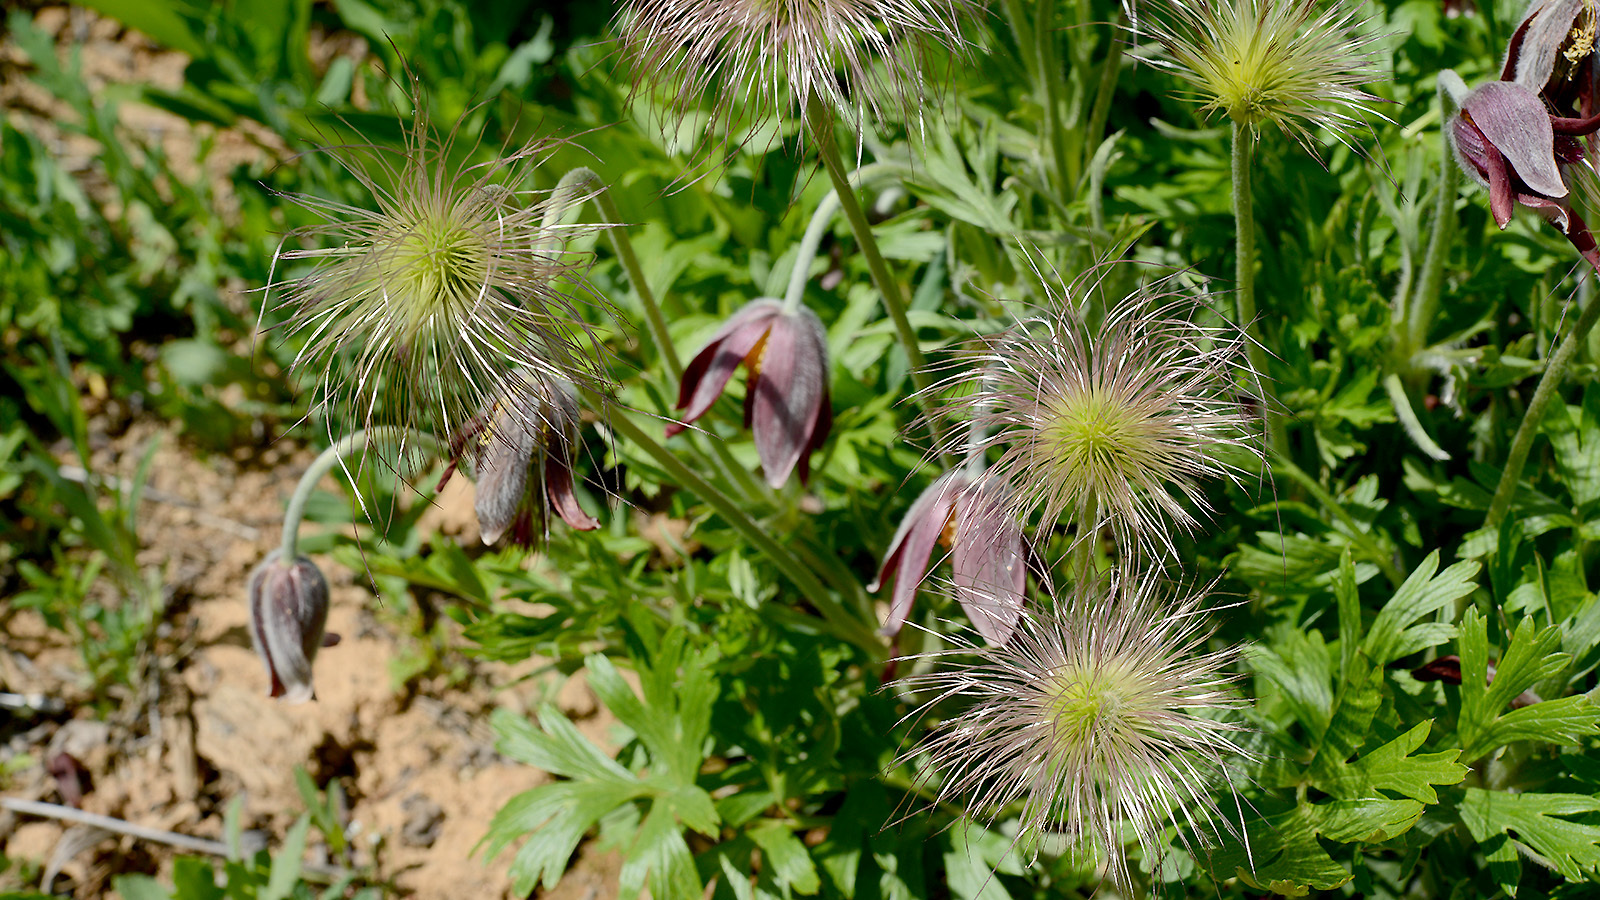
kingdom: Plantae
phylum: Tracheophyta
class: Magnoliopsida
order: Ranunculales
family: Ranunculaceae
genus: Pulsatilla
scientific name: Pulsatilla cernua
